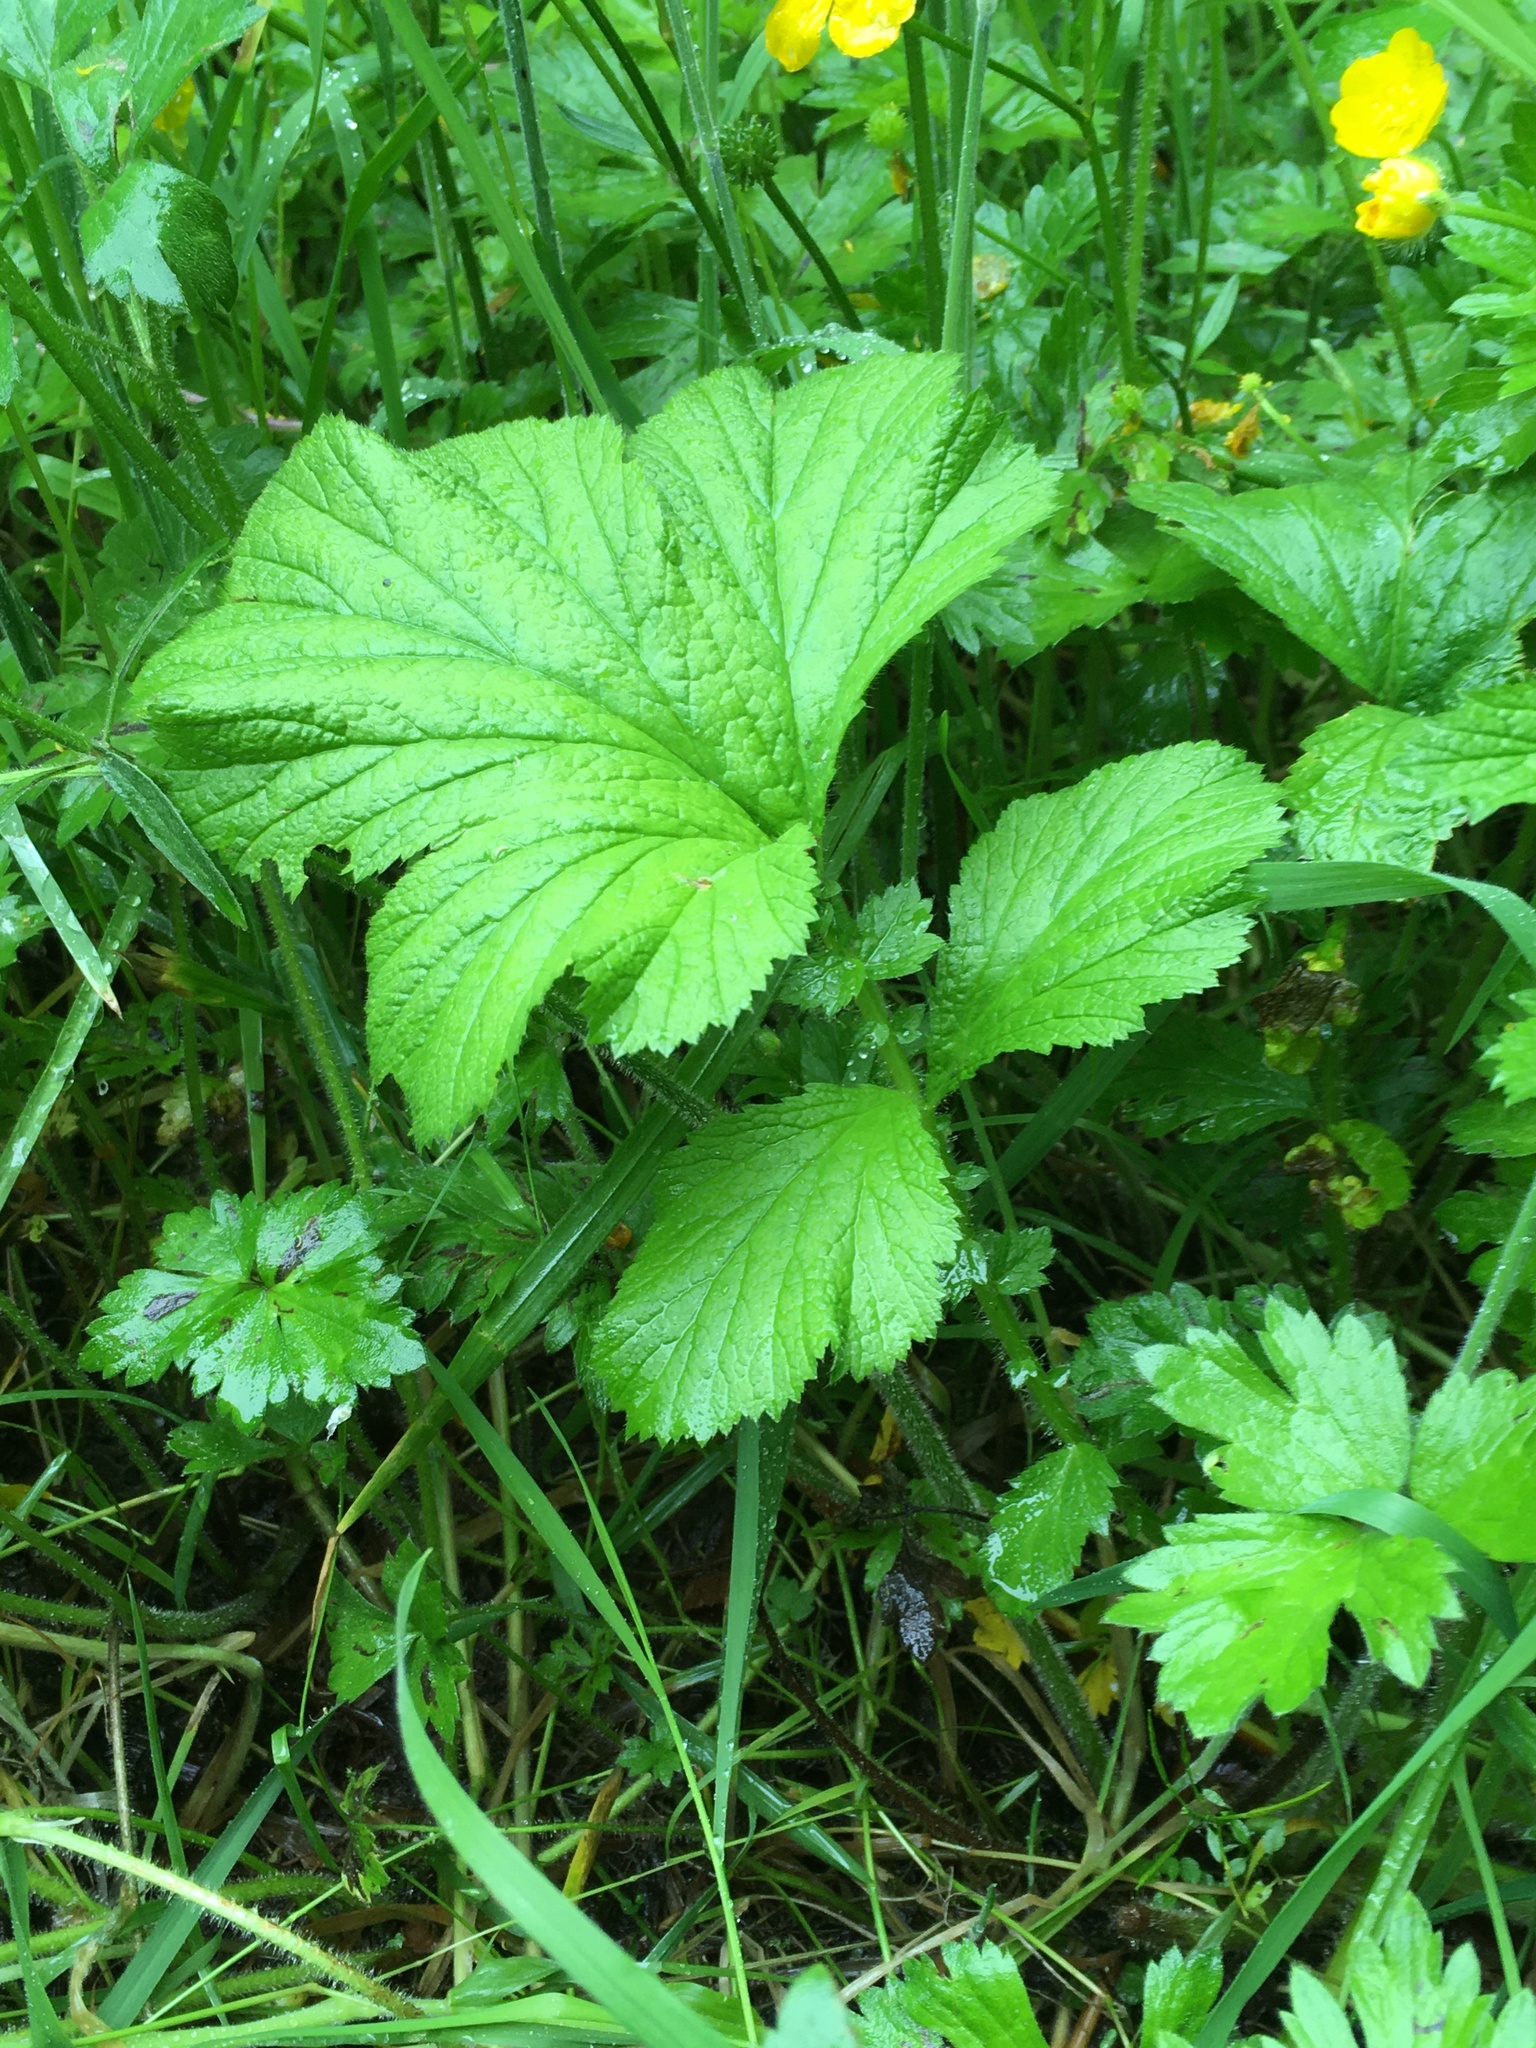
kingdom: Plantae
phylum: Tracheophyta
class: Magnoliopsida
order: Rosales
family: Rosaceae
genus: Geum
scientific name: Geum macrophyllum
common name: Large-leaved avens
